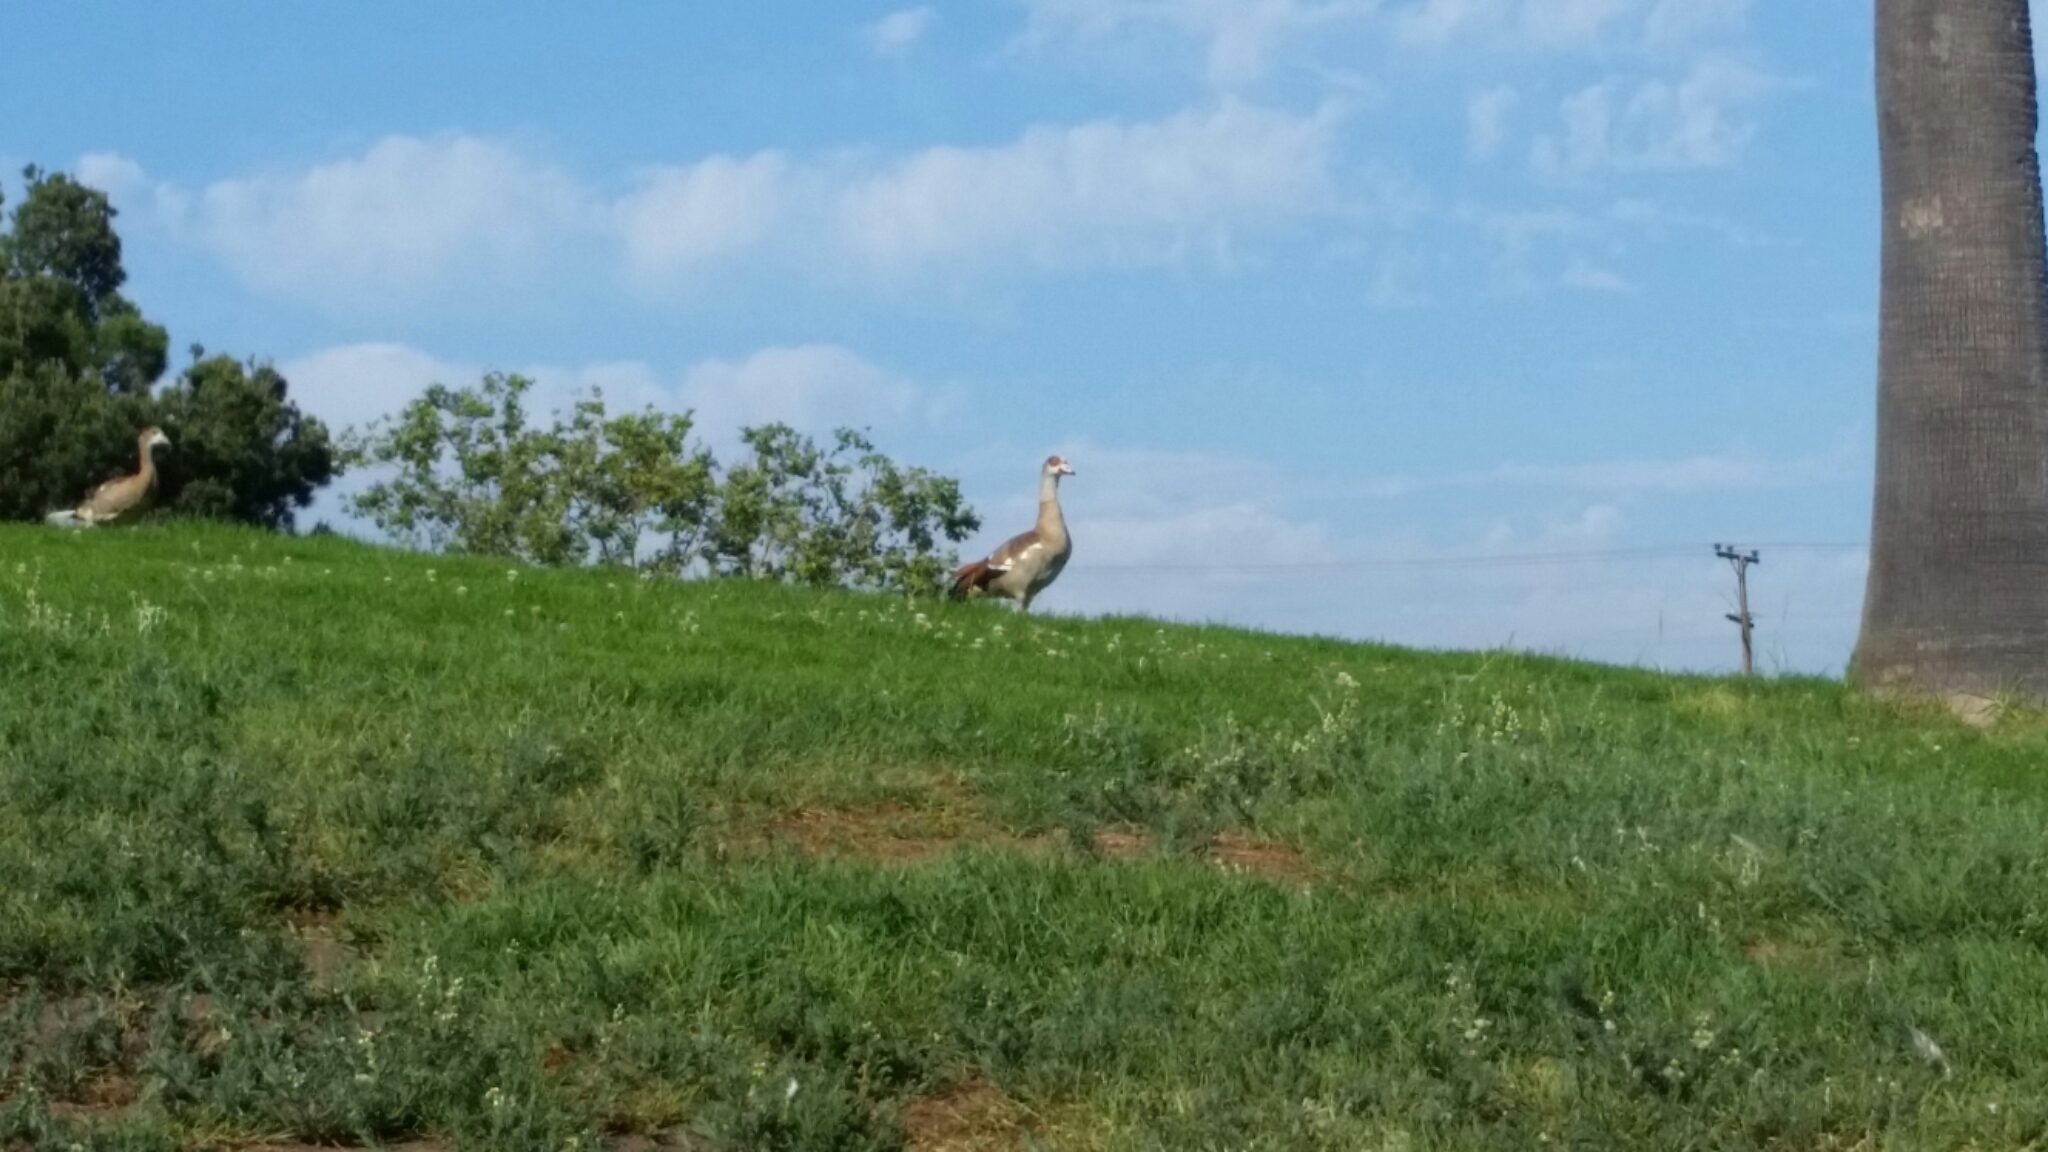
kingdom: Animalia
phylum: Chordata
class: Aves
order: Anseriformes
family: Anatidae
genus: Alopochen
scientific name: Alopochen aegyptiaca
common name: Egyptian goose
